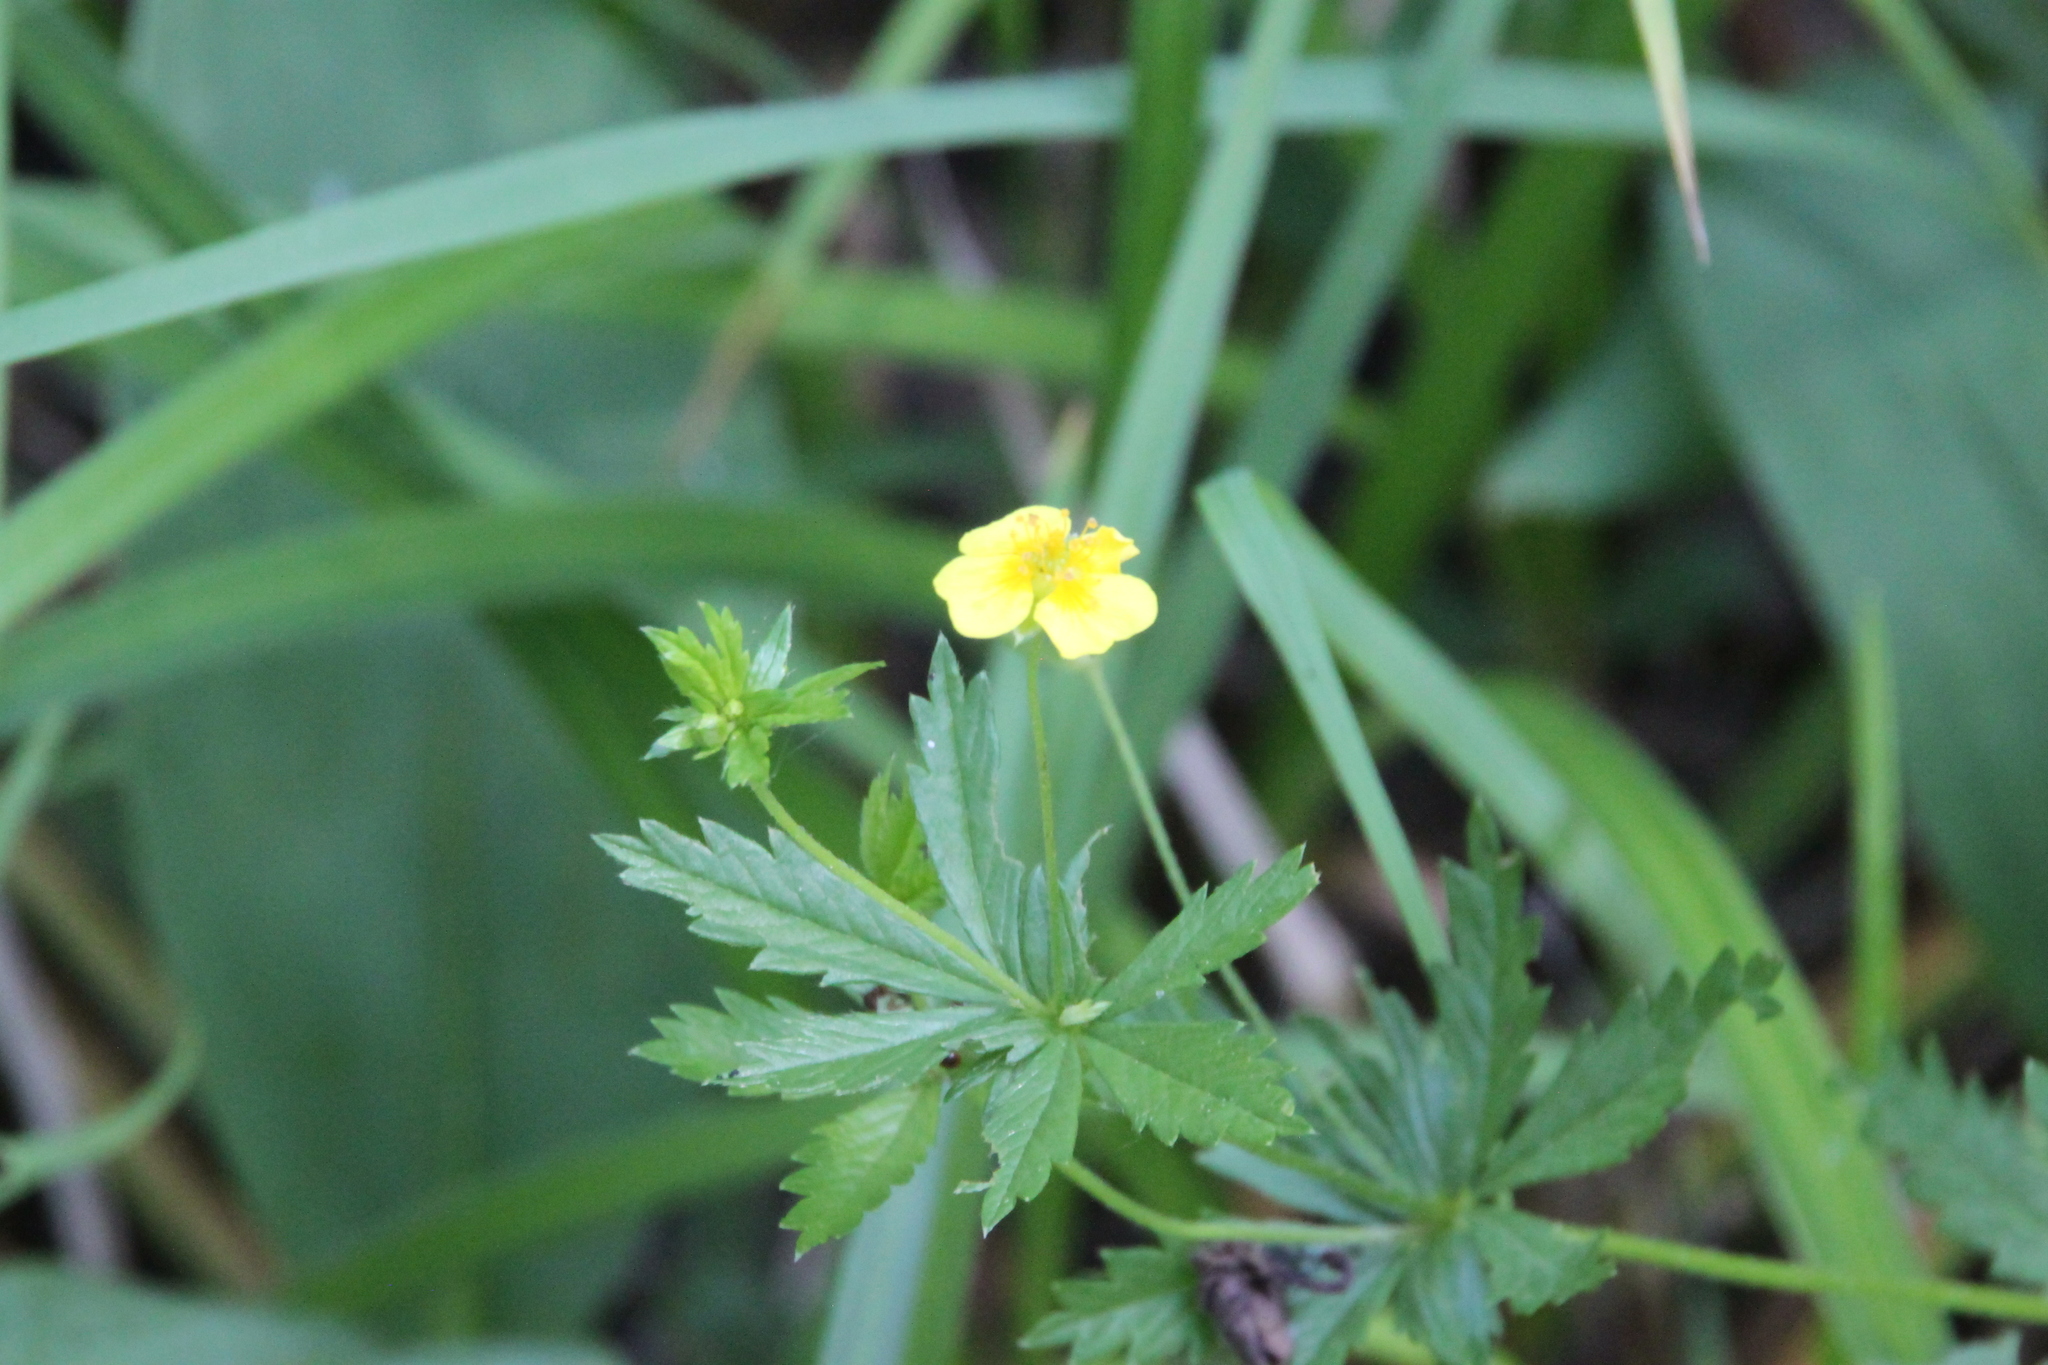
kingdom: Plantae
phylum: Tracheophyta
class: Magnoliopsida
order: Rosales
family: Rosaceae
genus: Potentilla
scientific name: Potentilla erecta
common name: Tormentil
